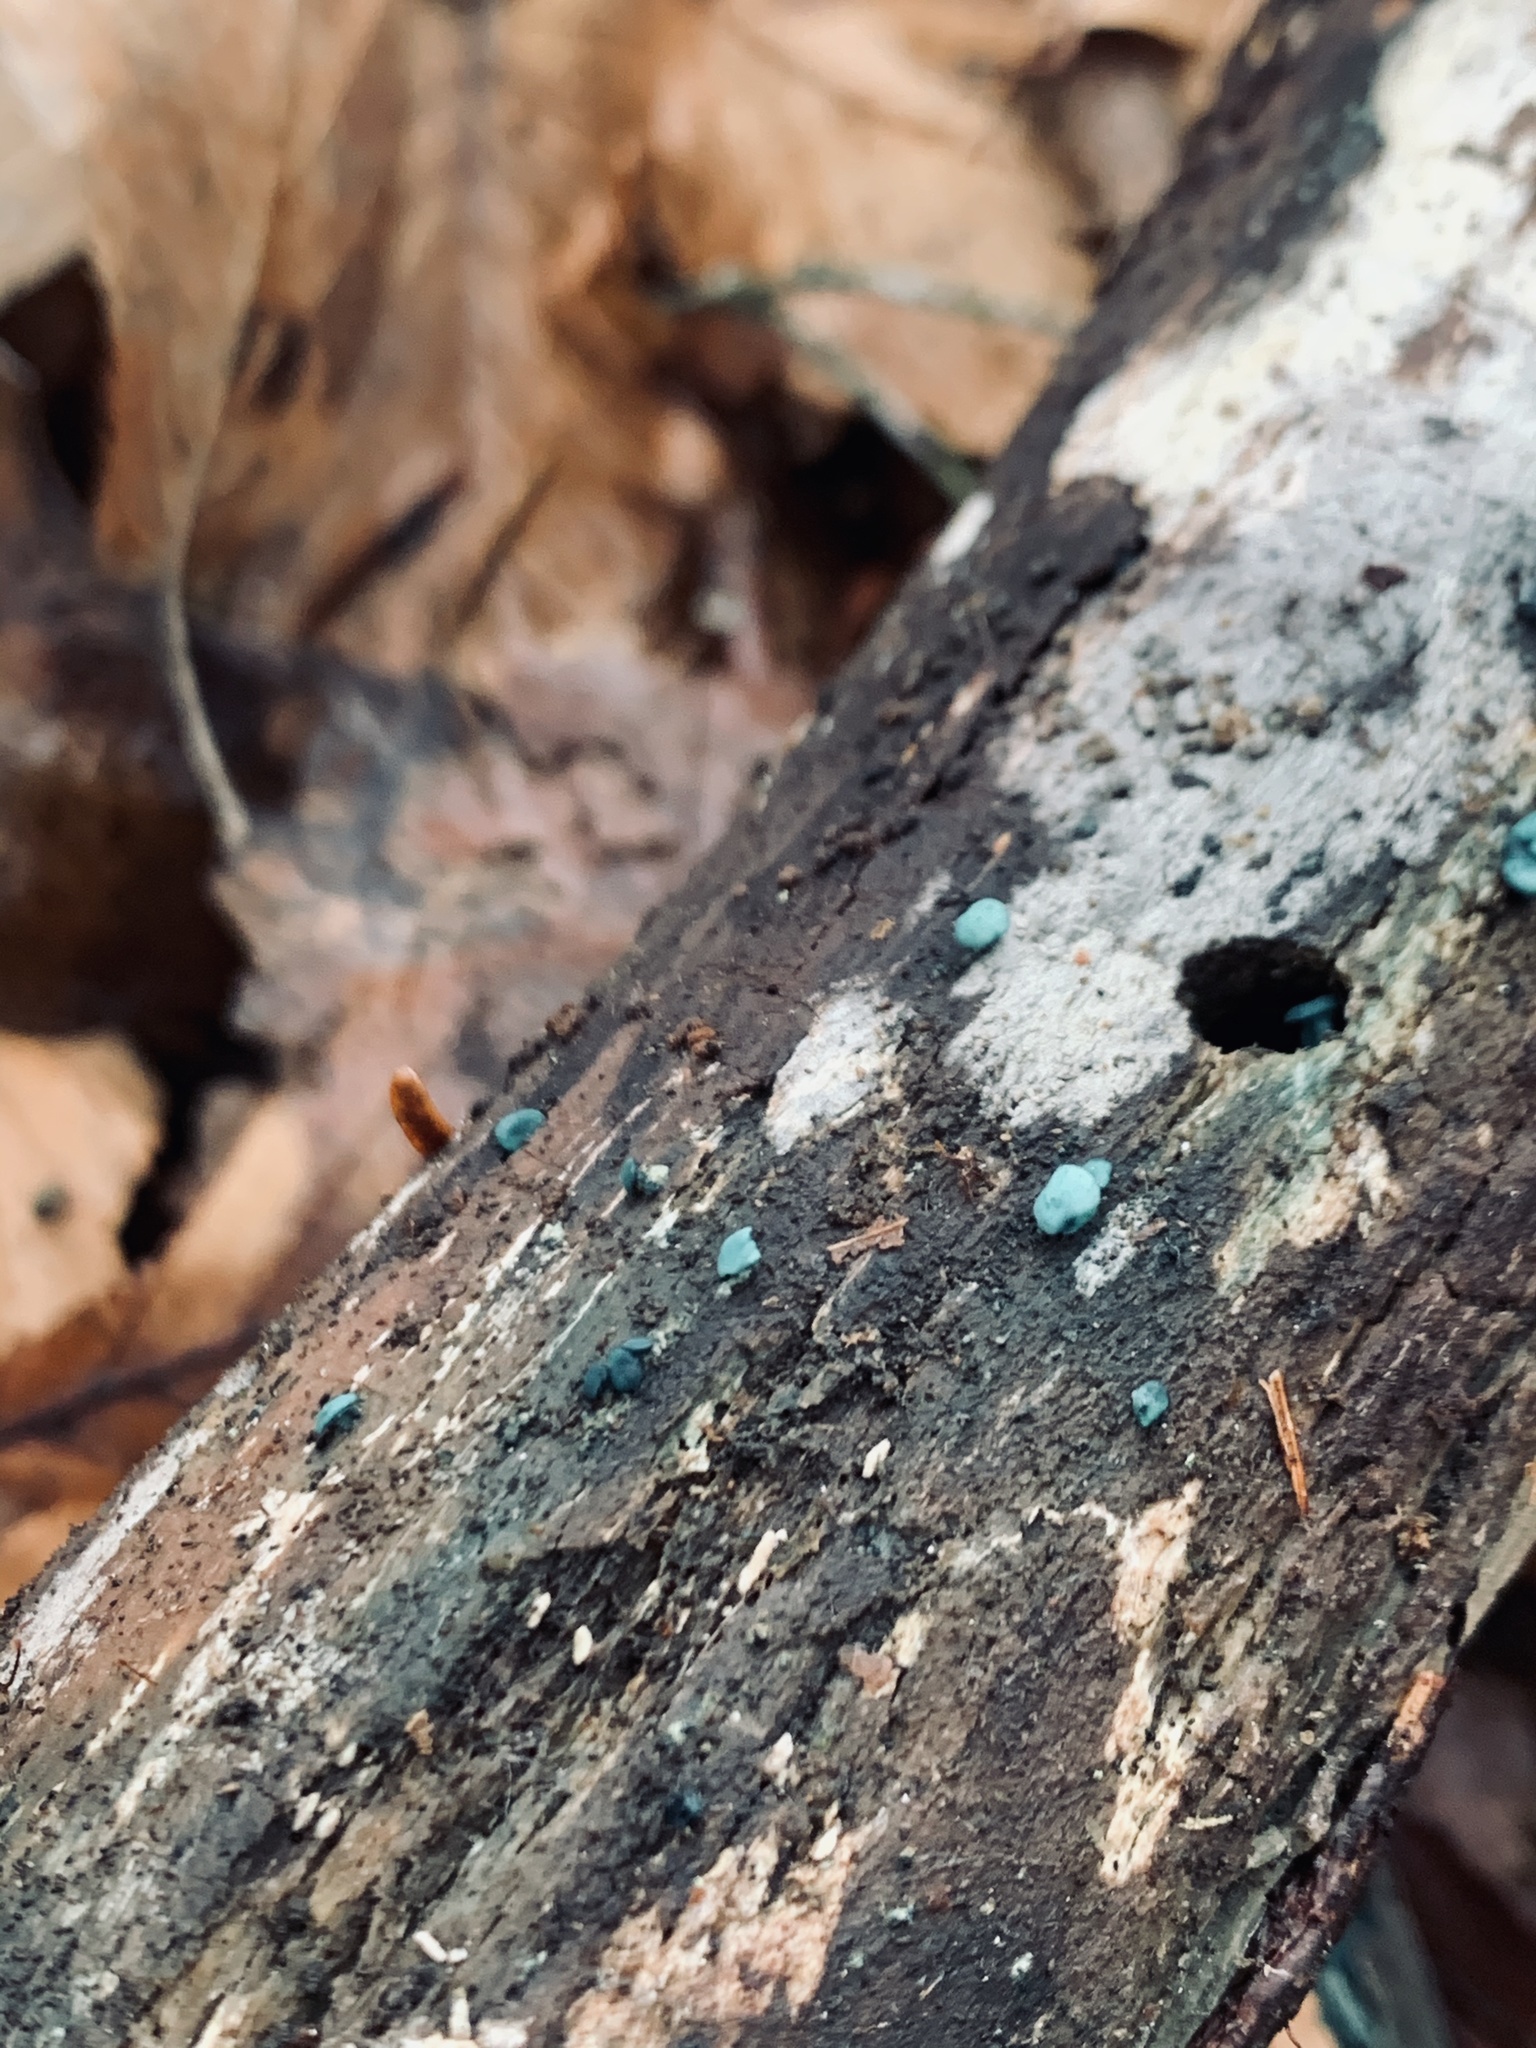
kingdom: Fungi
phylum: Ascomycota
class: Leotiomycetes
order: Helotiales
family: Chlorociboriaceae
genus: Chlorociboria
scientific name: Chlorociboria
